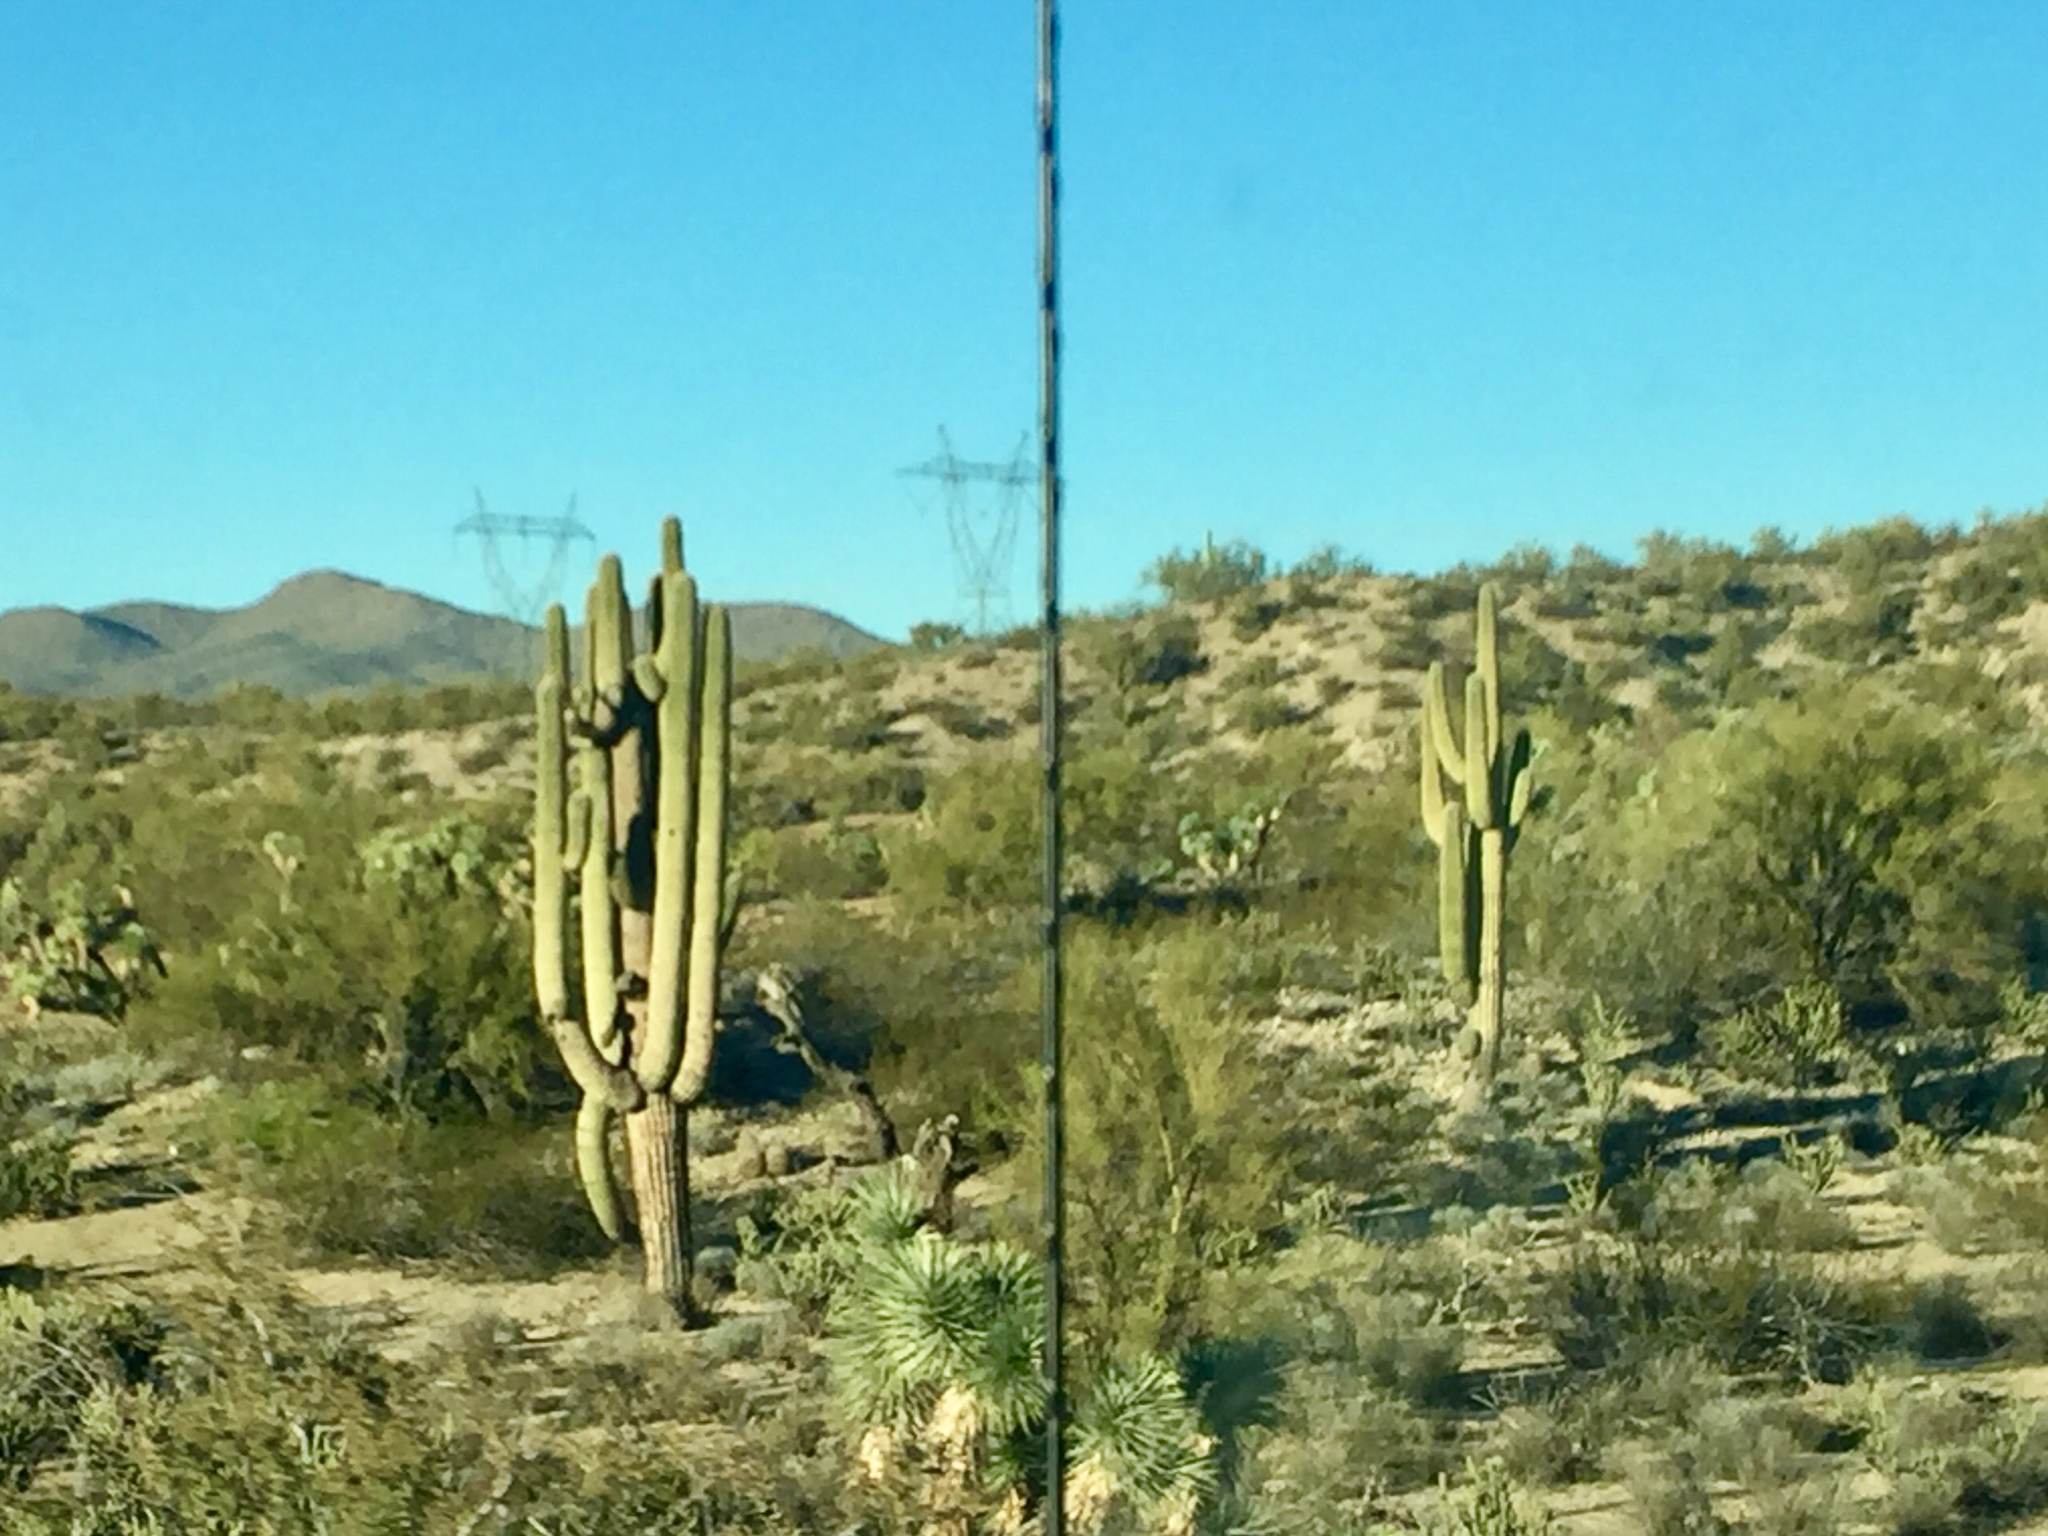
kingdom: Plantae
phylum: Tracheophyta
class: Magnoliopsida
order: Caryophyllales
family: Cactaceae
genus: Carnegiea
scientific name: Carnegiea gigantea
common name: Saguaro
